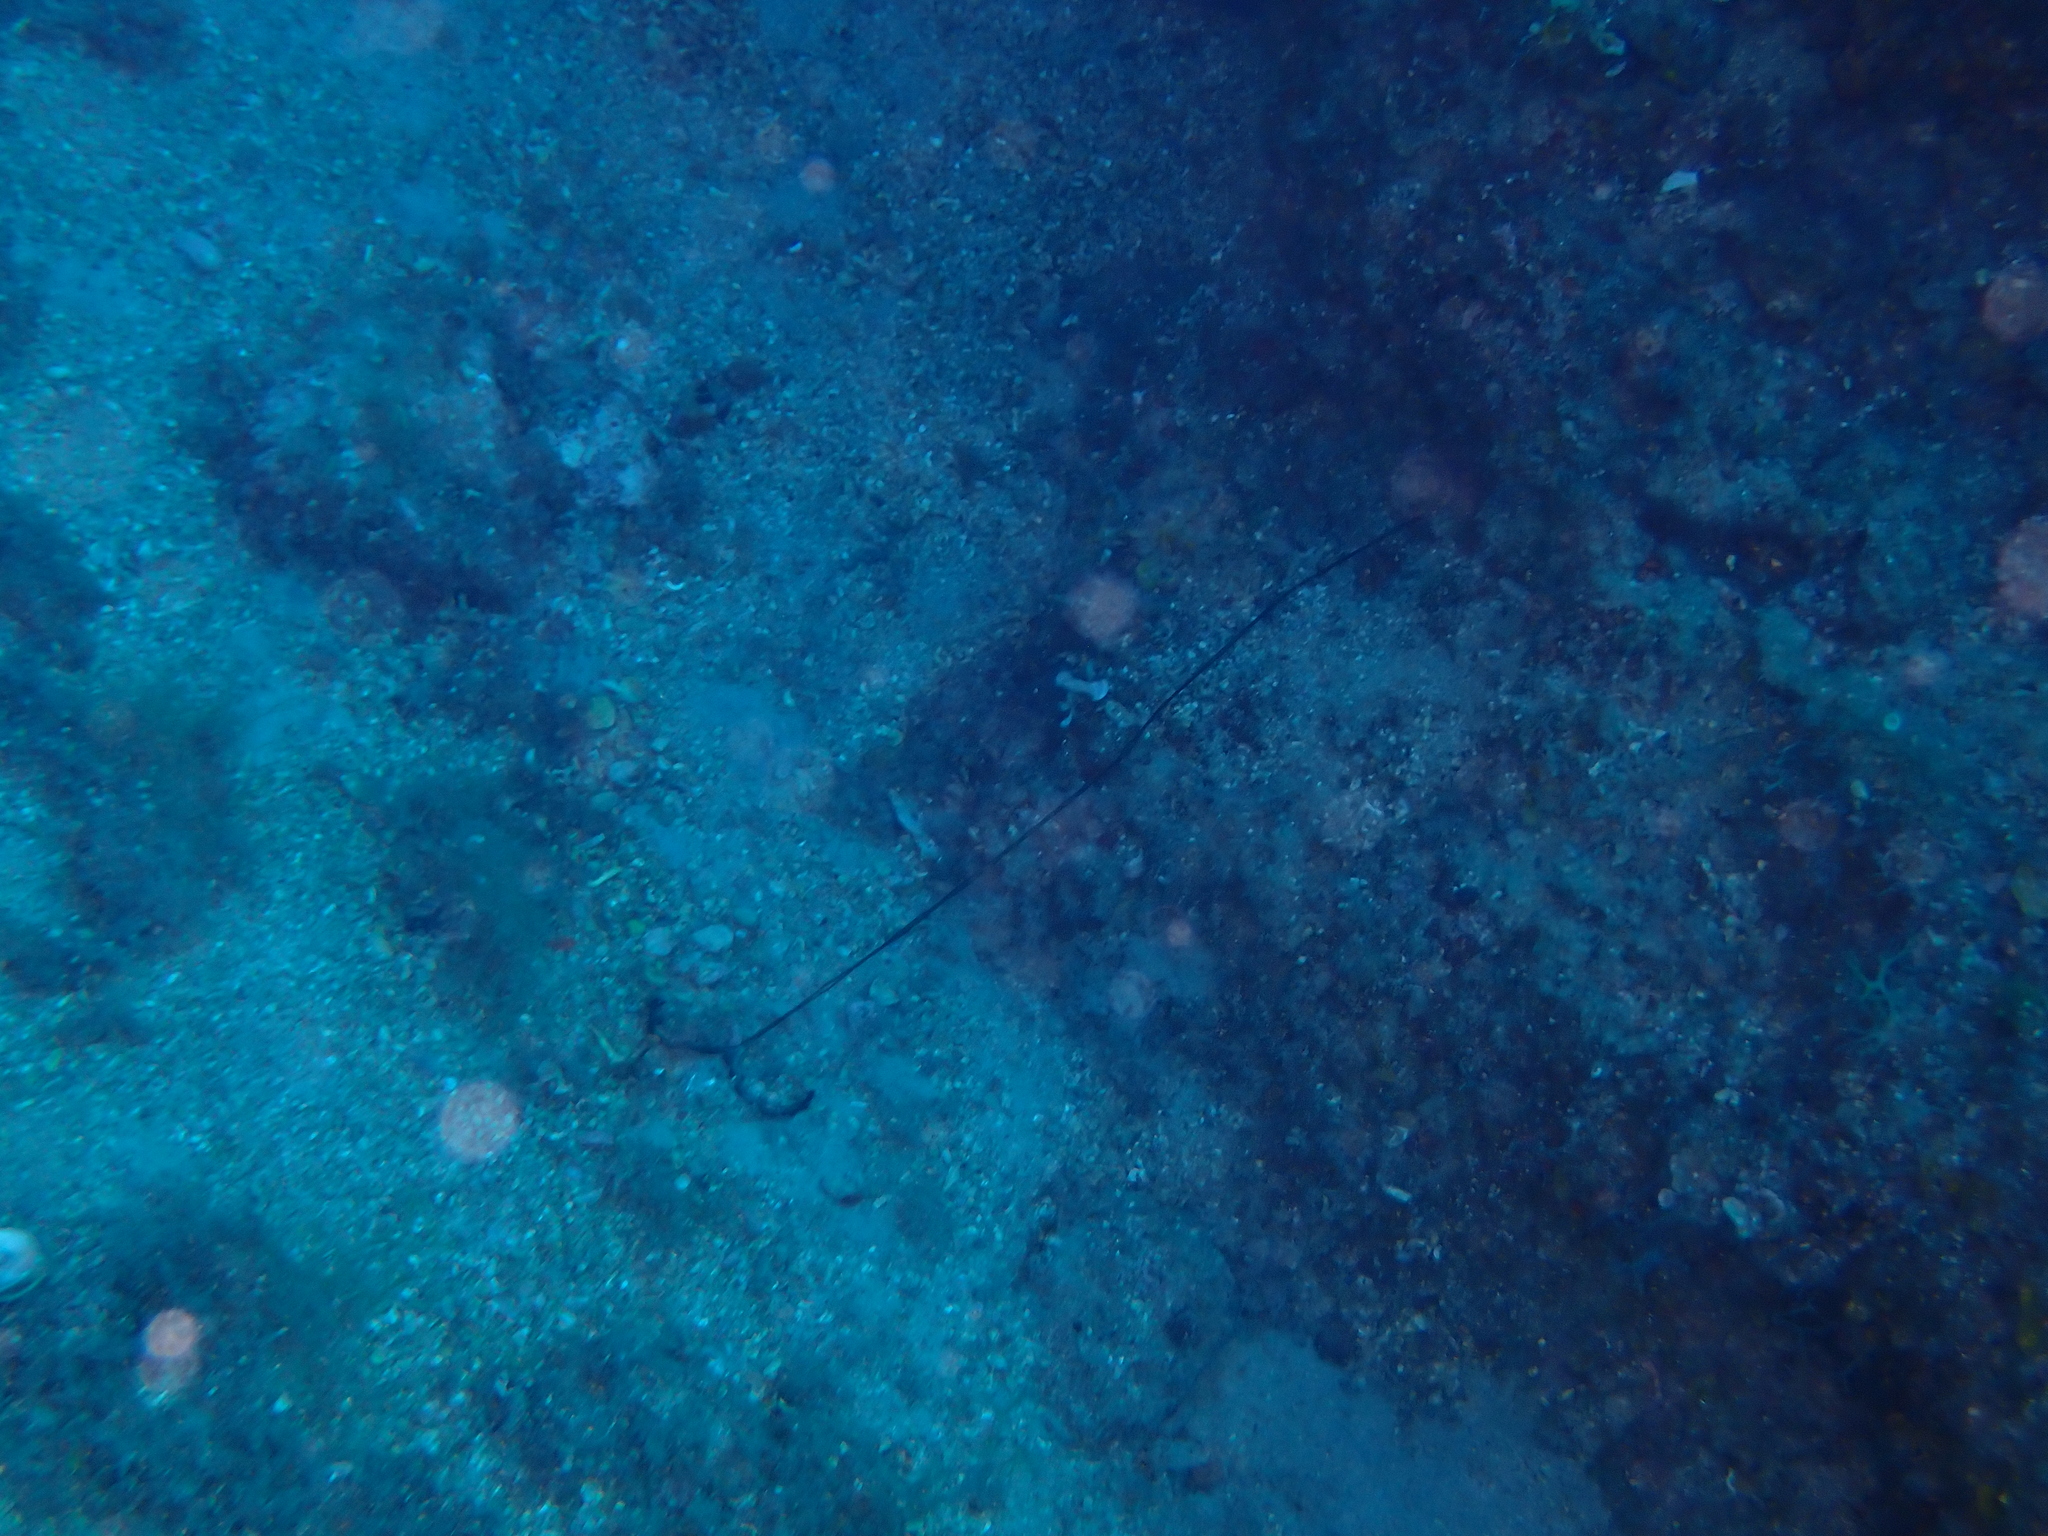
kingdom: Animalia
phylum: Annelida
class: Polychaeta
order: Echiuroidea
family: Bonelliidae
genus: Bonellia
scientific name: Bonellia viridis
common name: Green spoon worm
